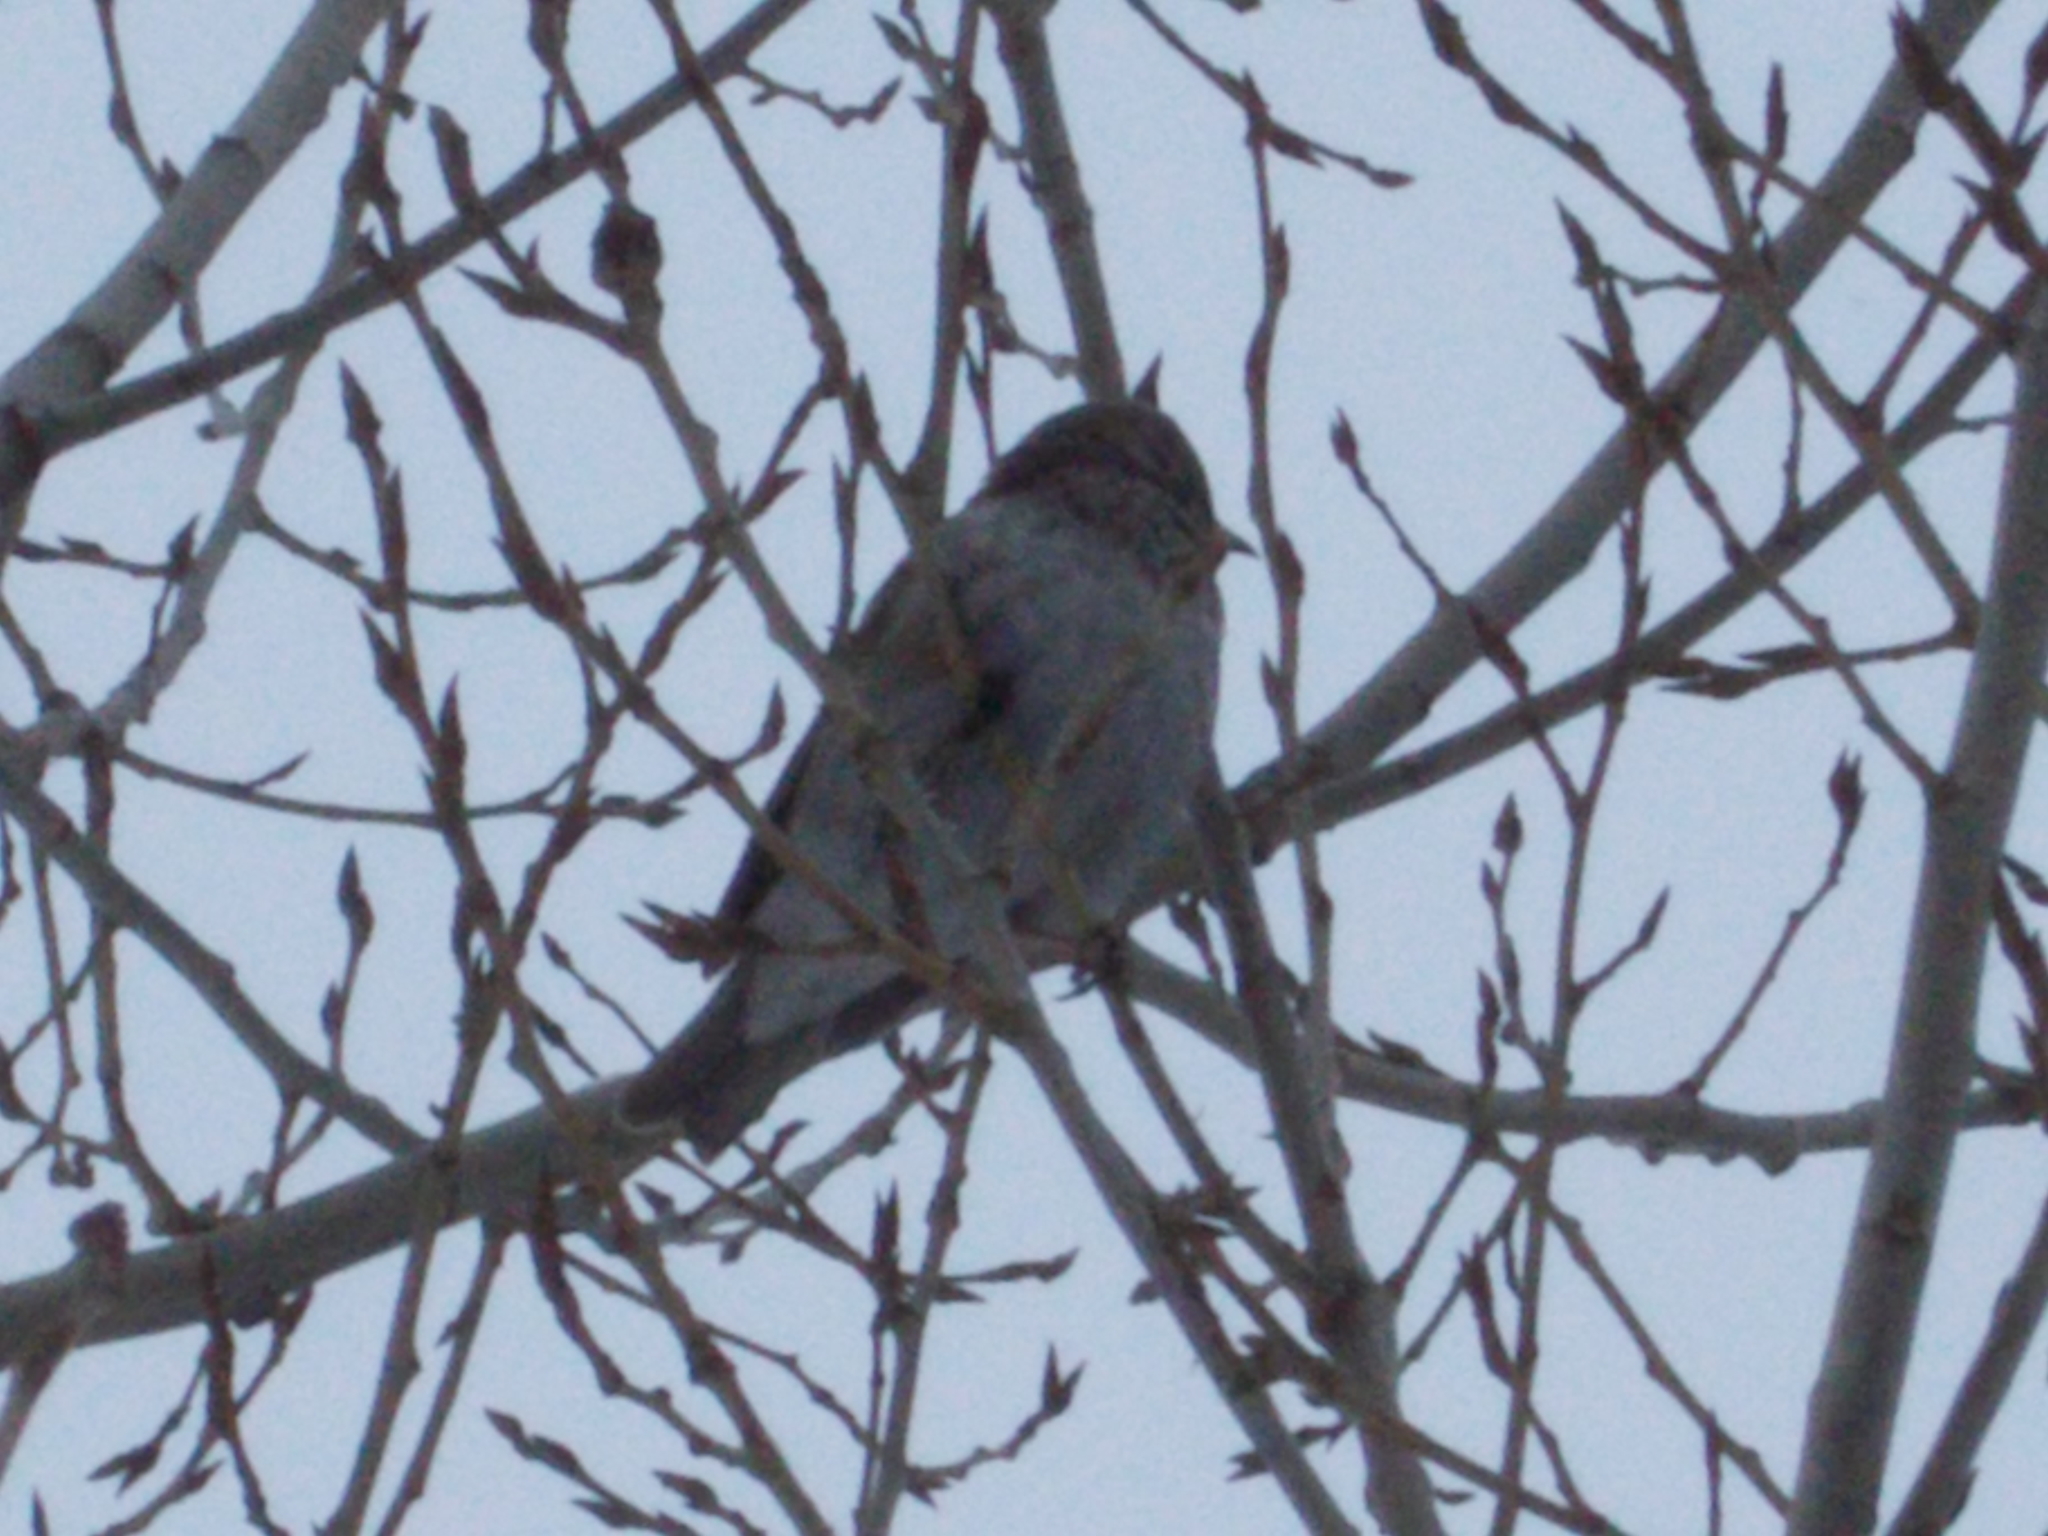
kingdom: Animalia
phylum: Chordata
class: Aves
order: Passeriformes
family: Turdidae
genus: Turdus
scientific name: Turdus atrogularis
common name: Black-throated thrush
